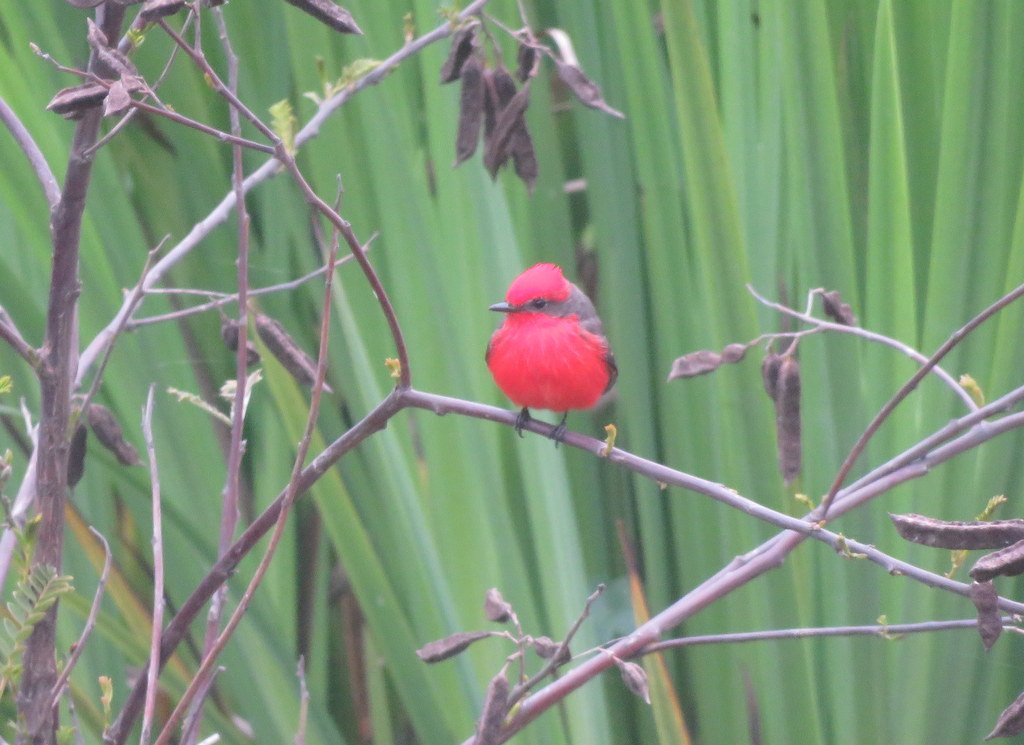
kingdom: Animalia
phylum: Chordata
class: Aves
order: Passeriformes
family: Tyrannidae
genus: Pyrocephalus
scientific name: Pyrocephalus rubinus
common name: Vermilion flycatcher
